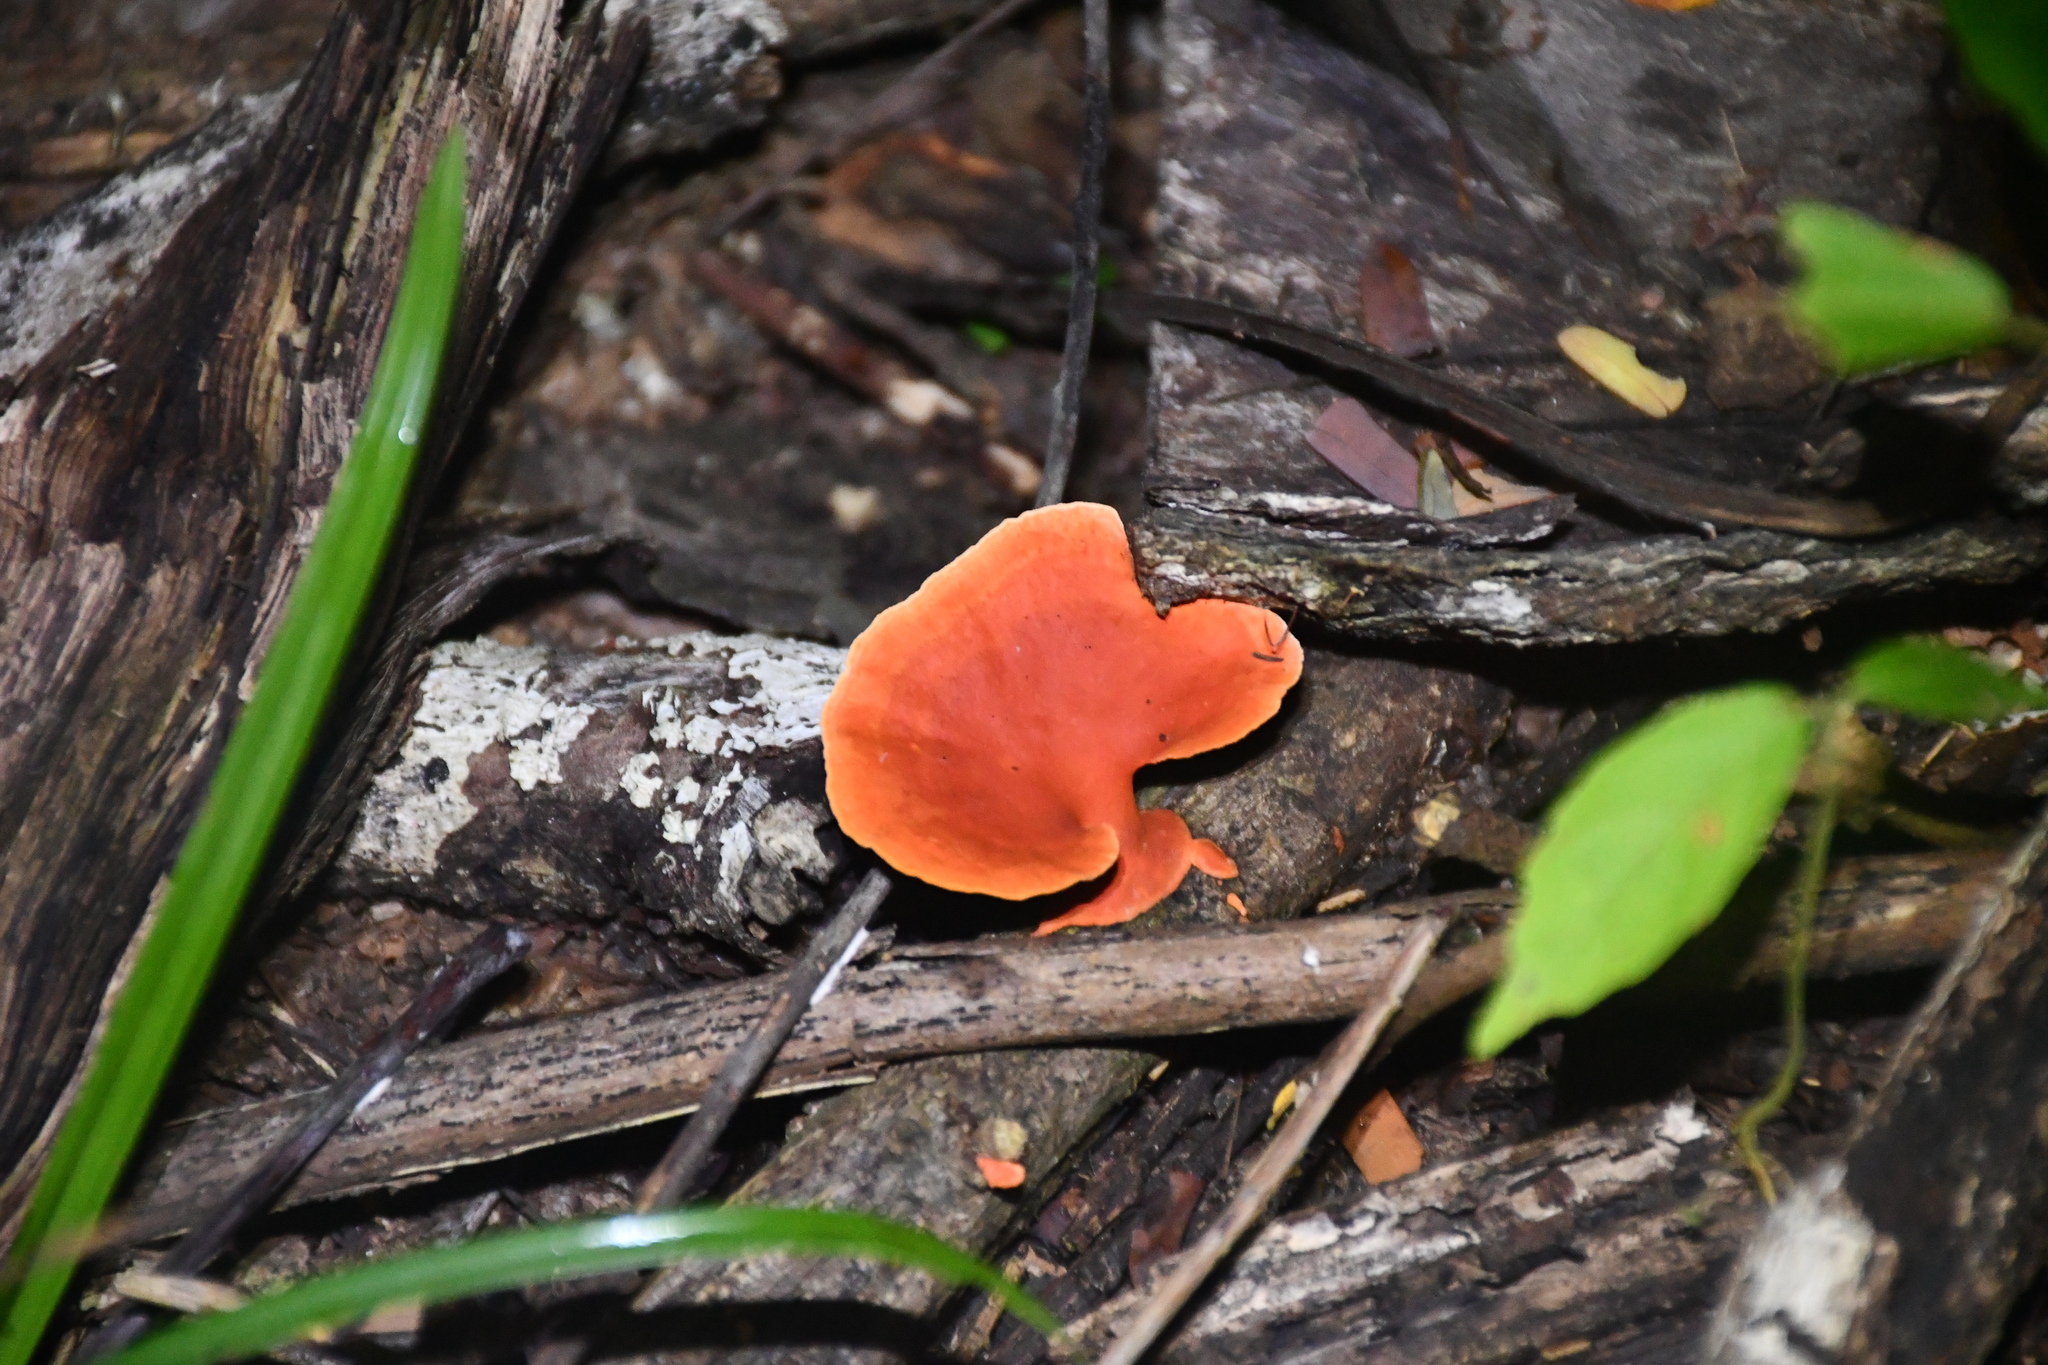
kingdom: Fungi
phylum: Basidiomycota
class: Agaricomycetes
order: Polyporales
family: Polyporaceae
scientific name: Polyporaceae
